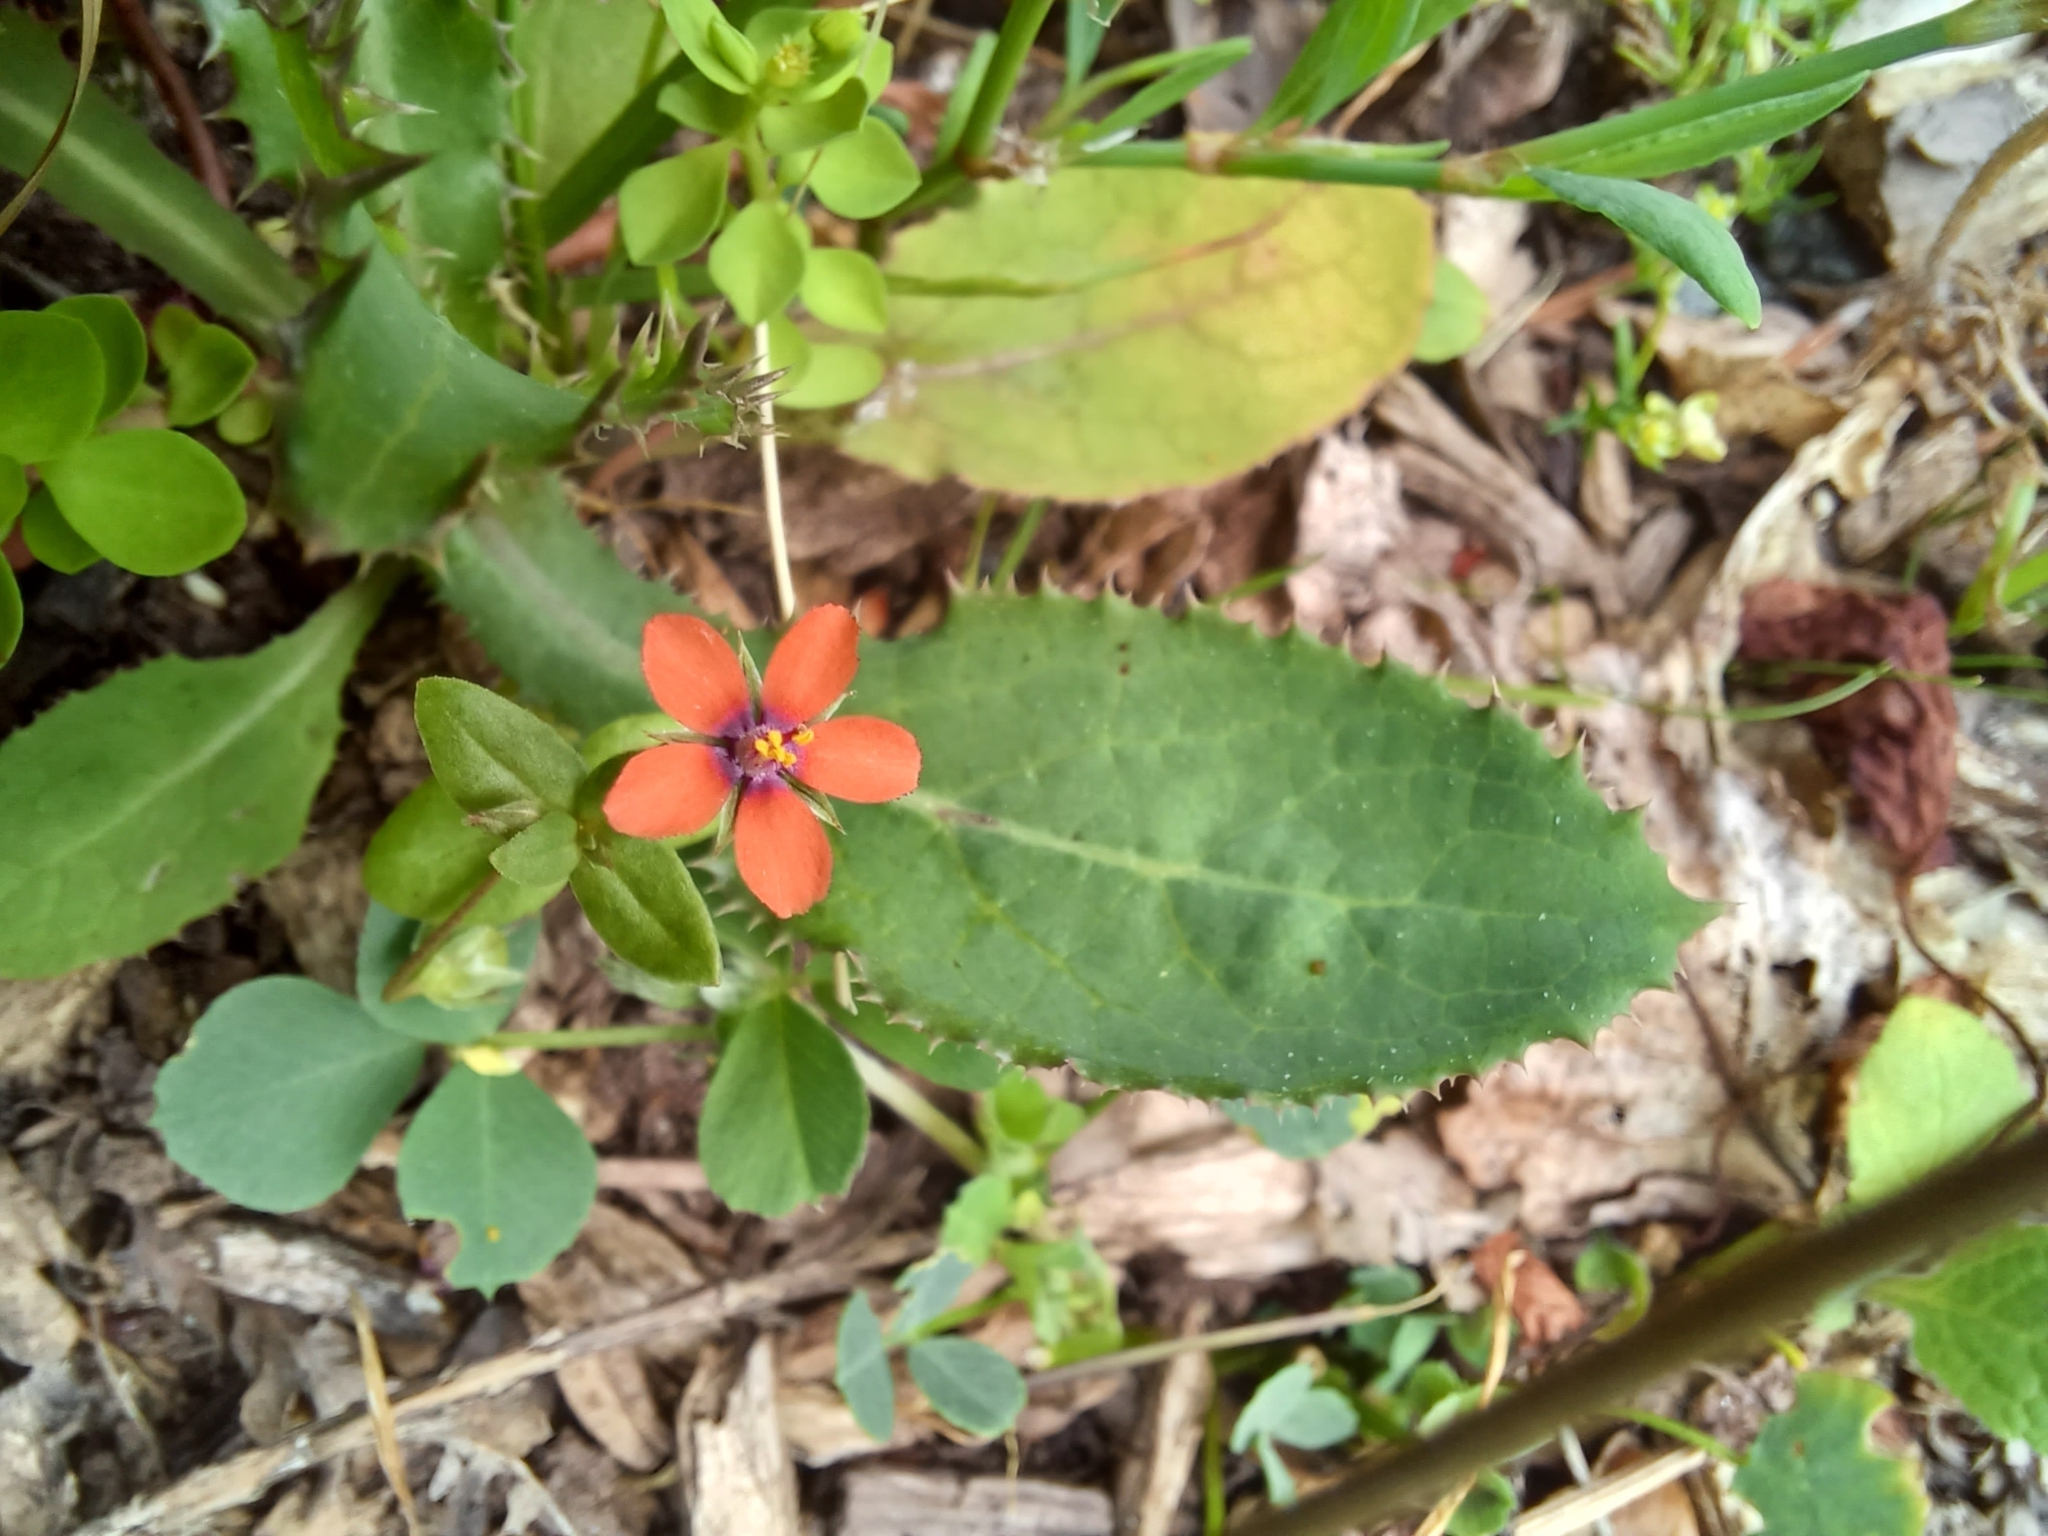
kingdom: Plantae
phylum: Tracheophyta
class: Magnoliopsida
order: Ericales
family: Primulaceae
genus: Lysimachia
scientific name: Lysimachia arvensis
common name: Scarlet pimpernel
